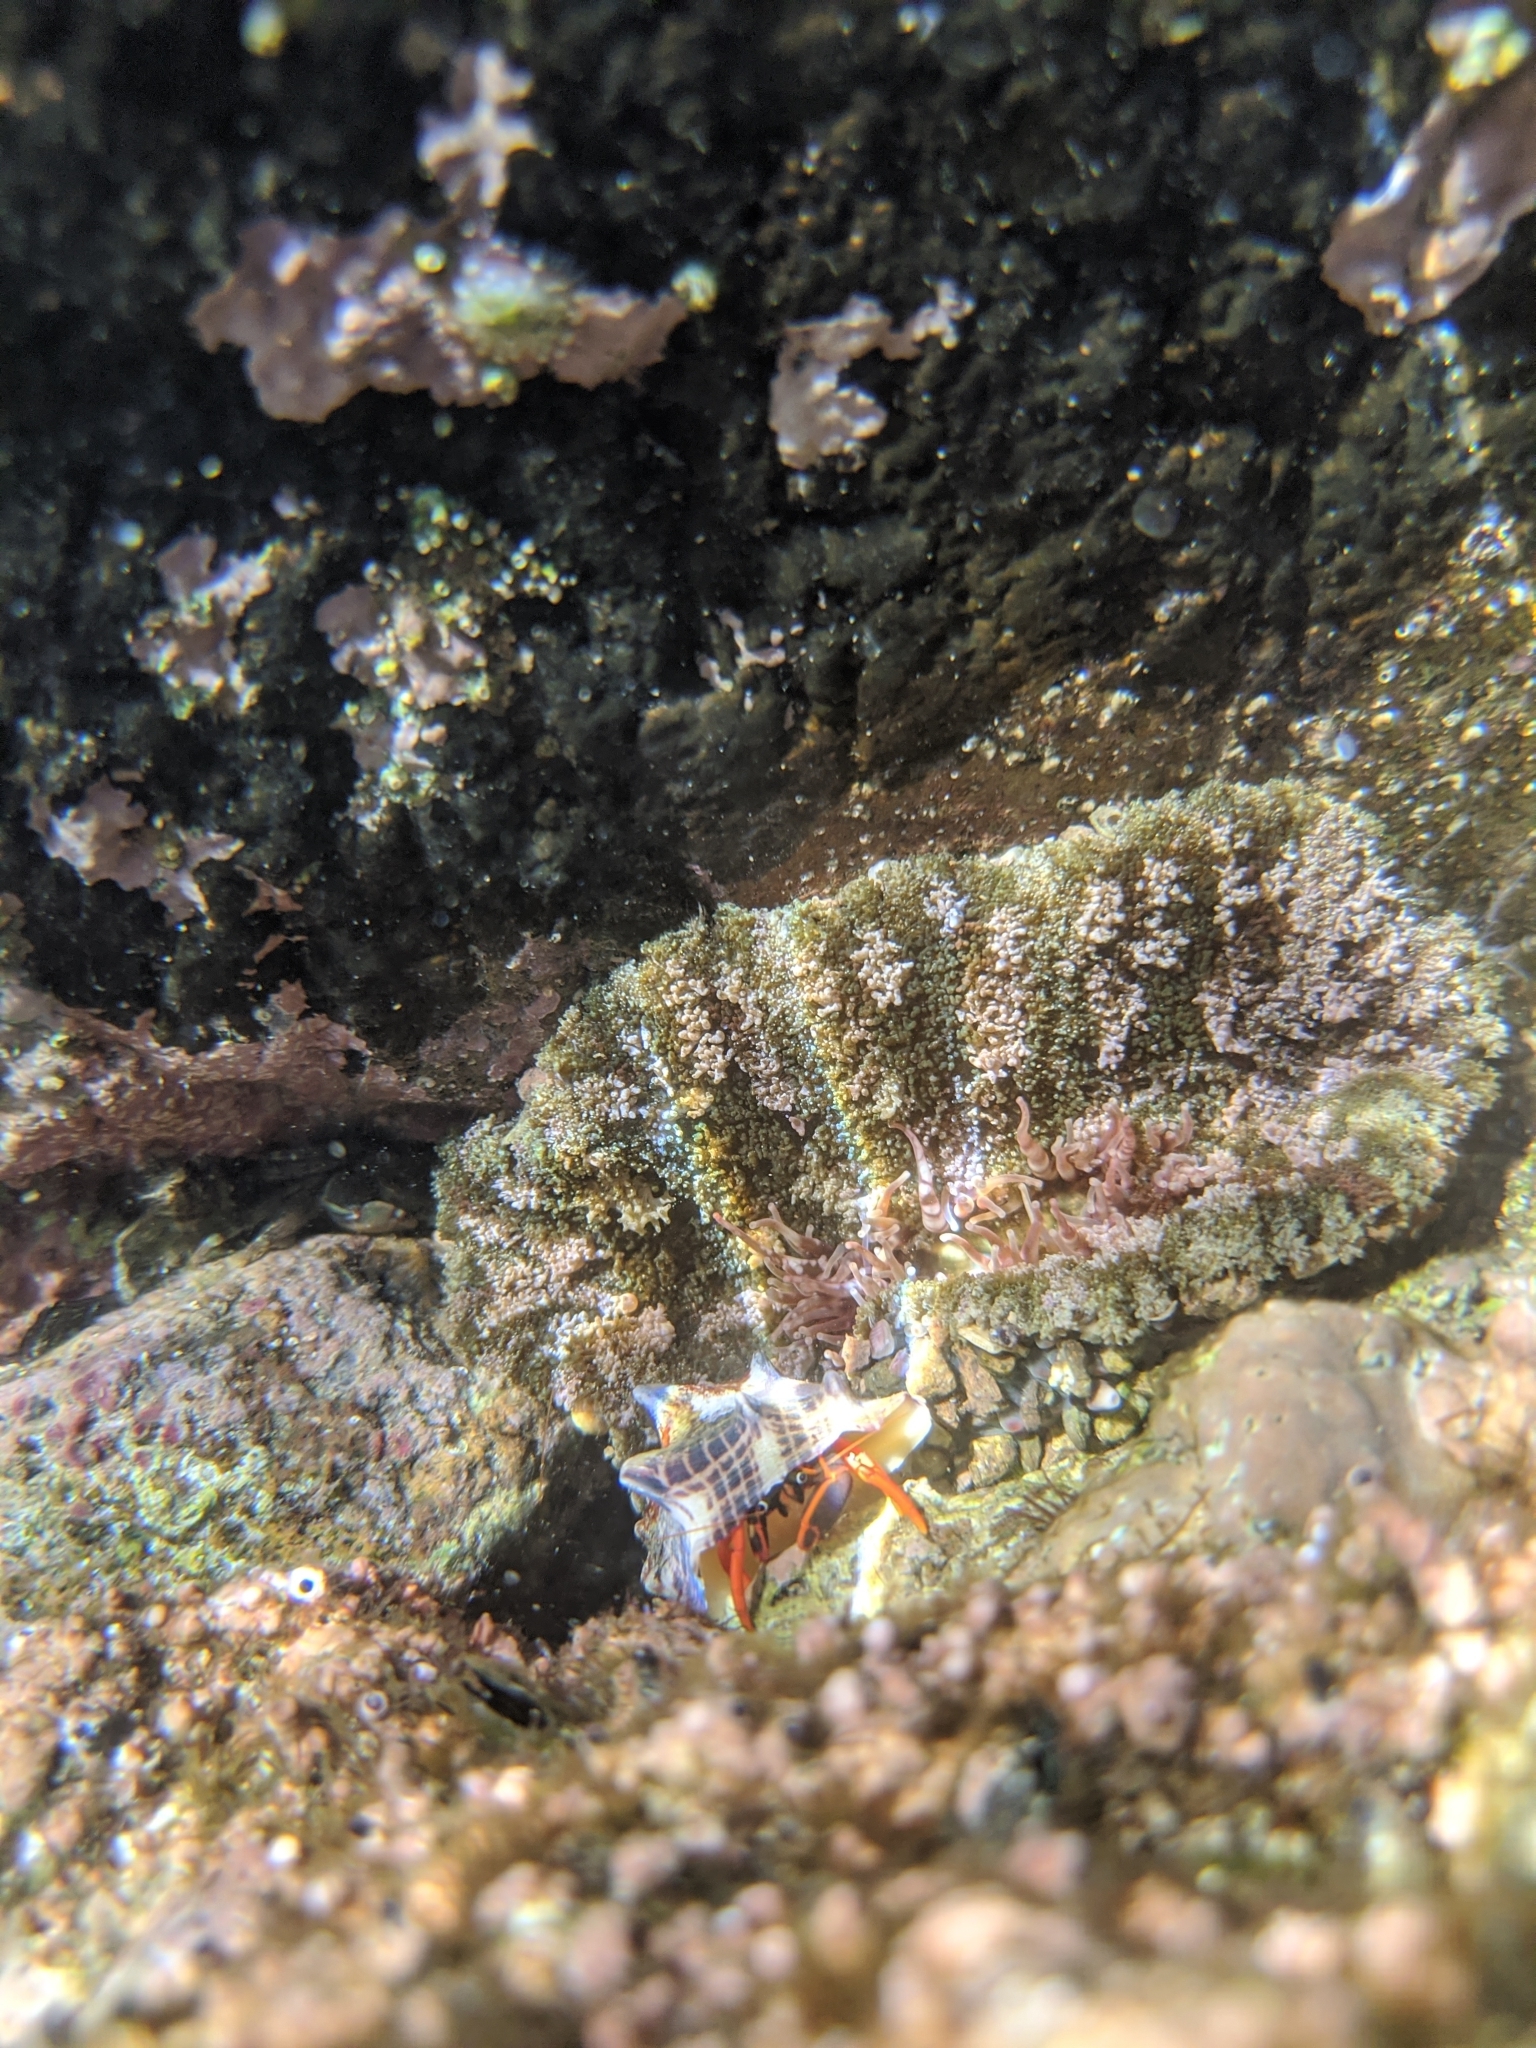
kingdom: Animalia
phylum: Arthropoda
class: Malacostraca
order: Decapoda
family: Diogenidae
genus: Calcinus
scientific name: Calcinus californiensis
